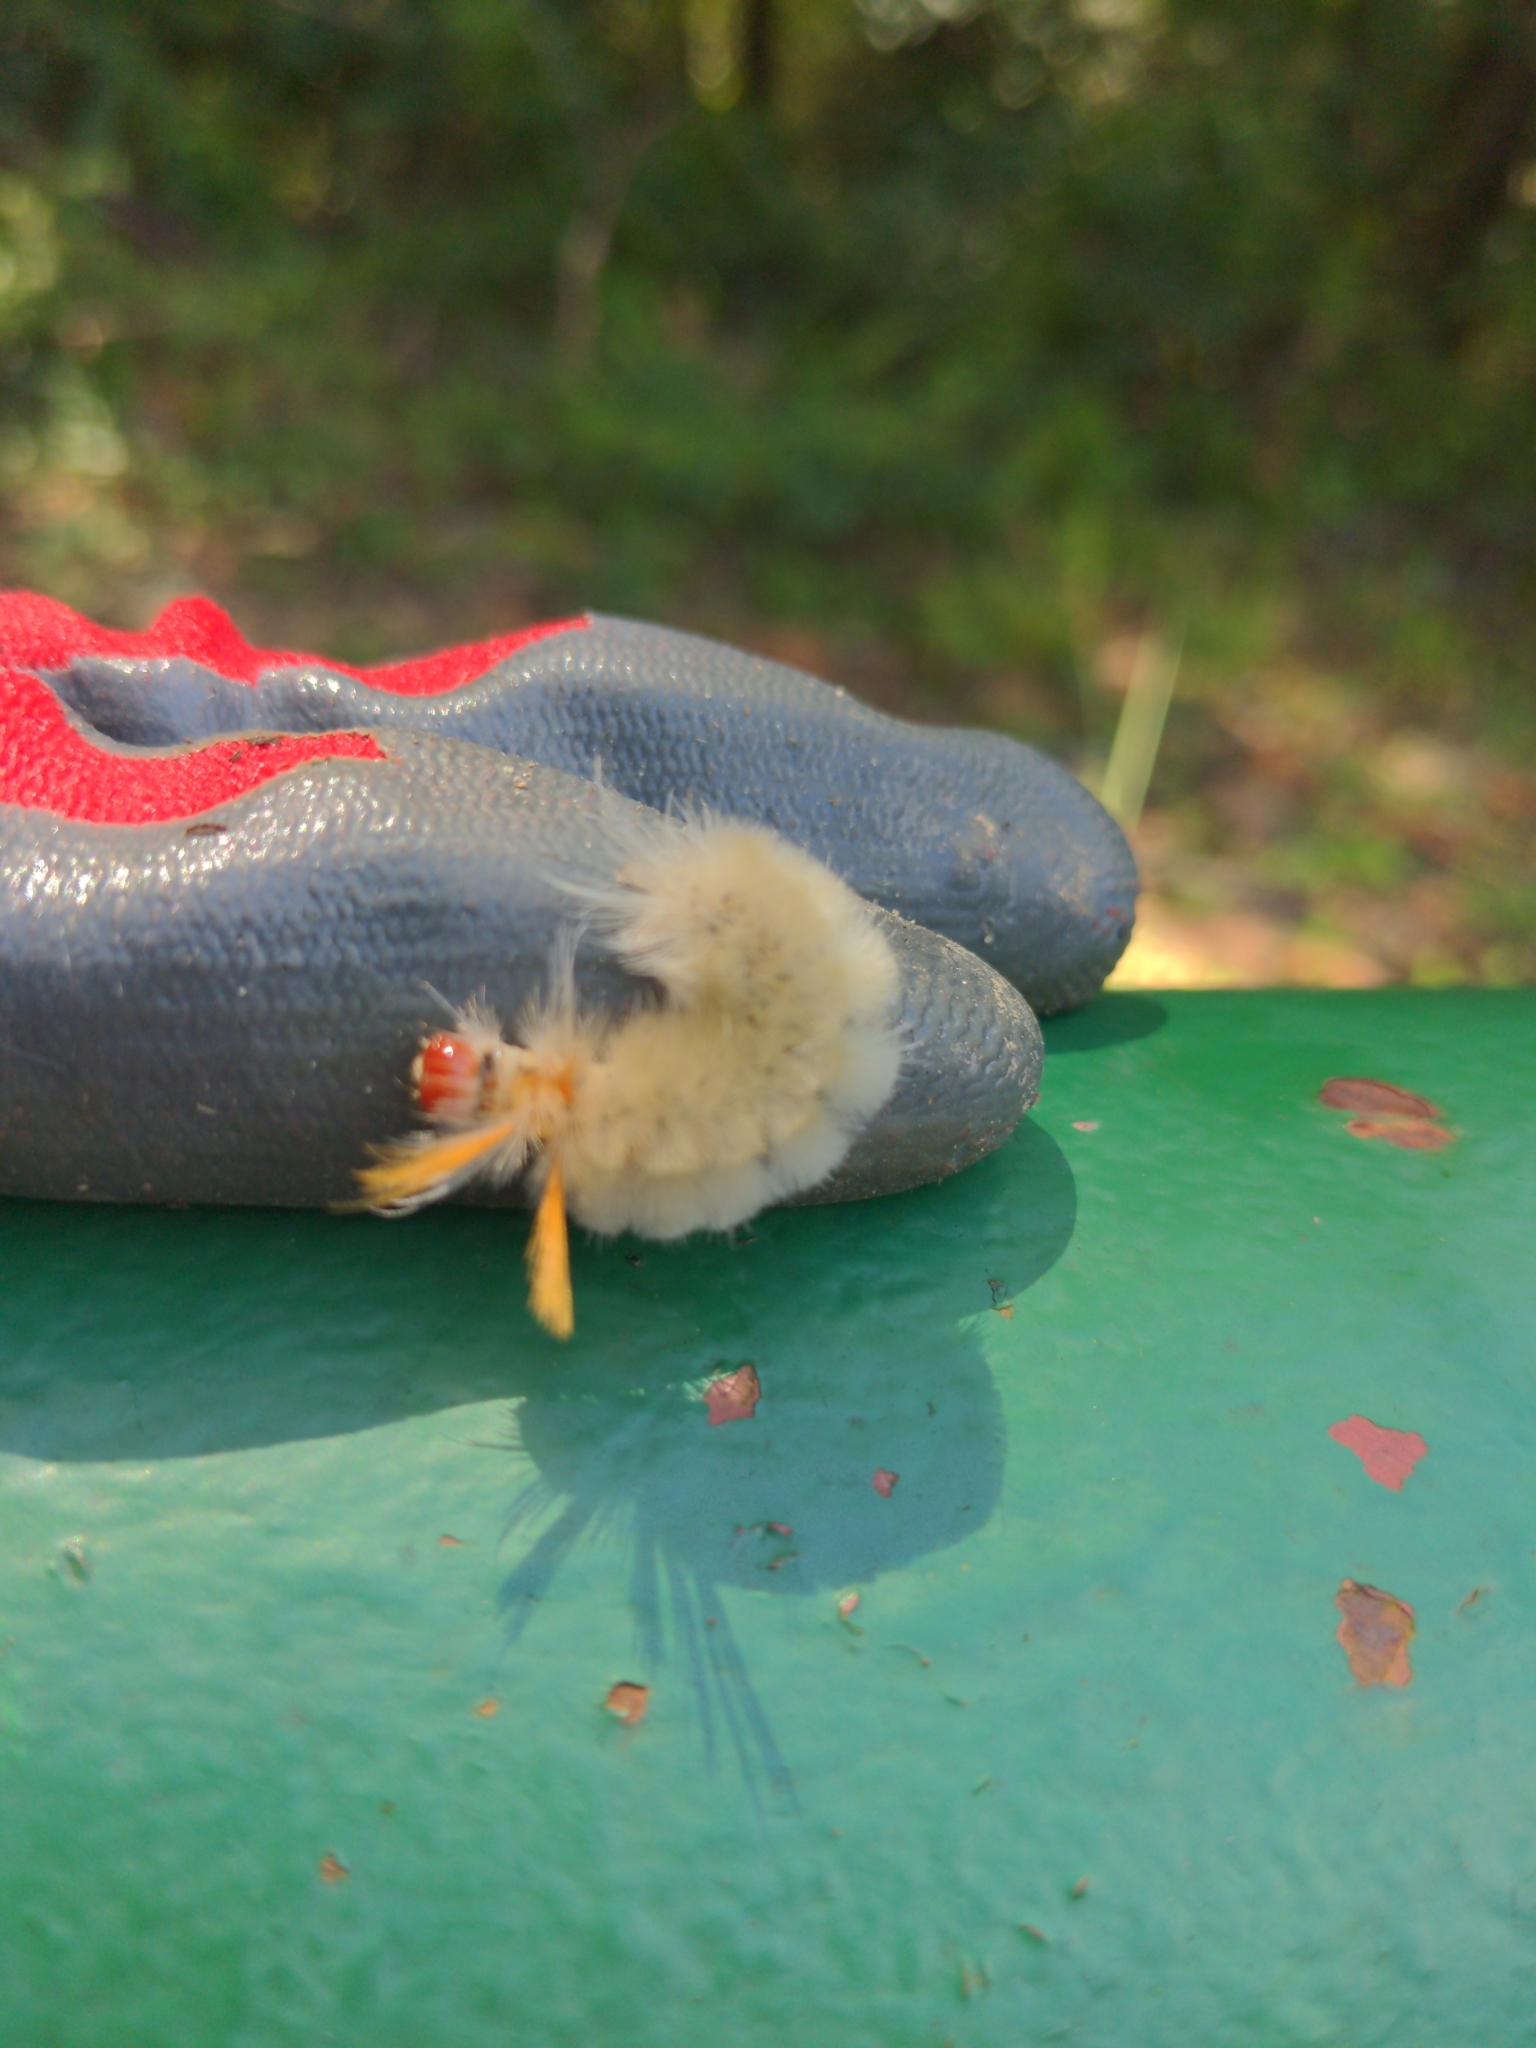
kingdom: Animalia
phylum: Arthropoda
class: Insecta
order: Lepidoptera
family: Erebidae
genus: Halysidota
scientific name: Halysidota harrisii
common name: Sycamore tussock moth
